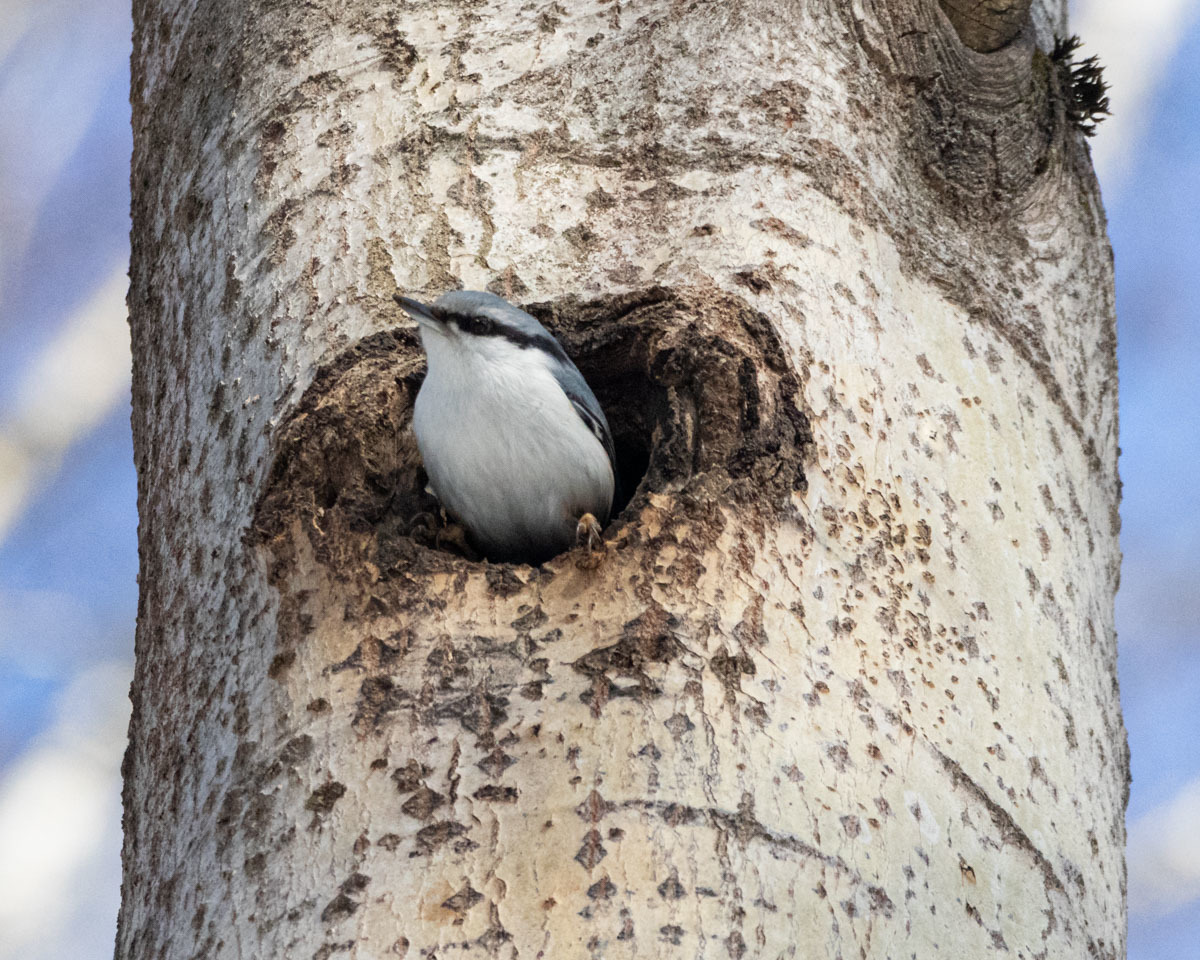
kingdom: Animalia
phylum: Chordata
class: Aves
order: Passeriformes
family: Sittidae
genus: Sitta
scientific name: Sitta europaea
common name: Eurasian nuthatch
